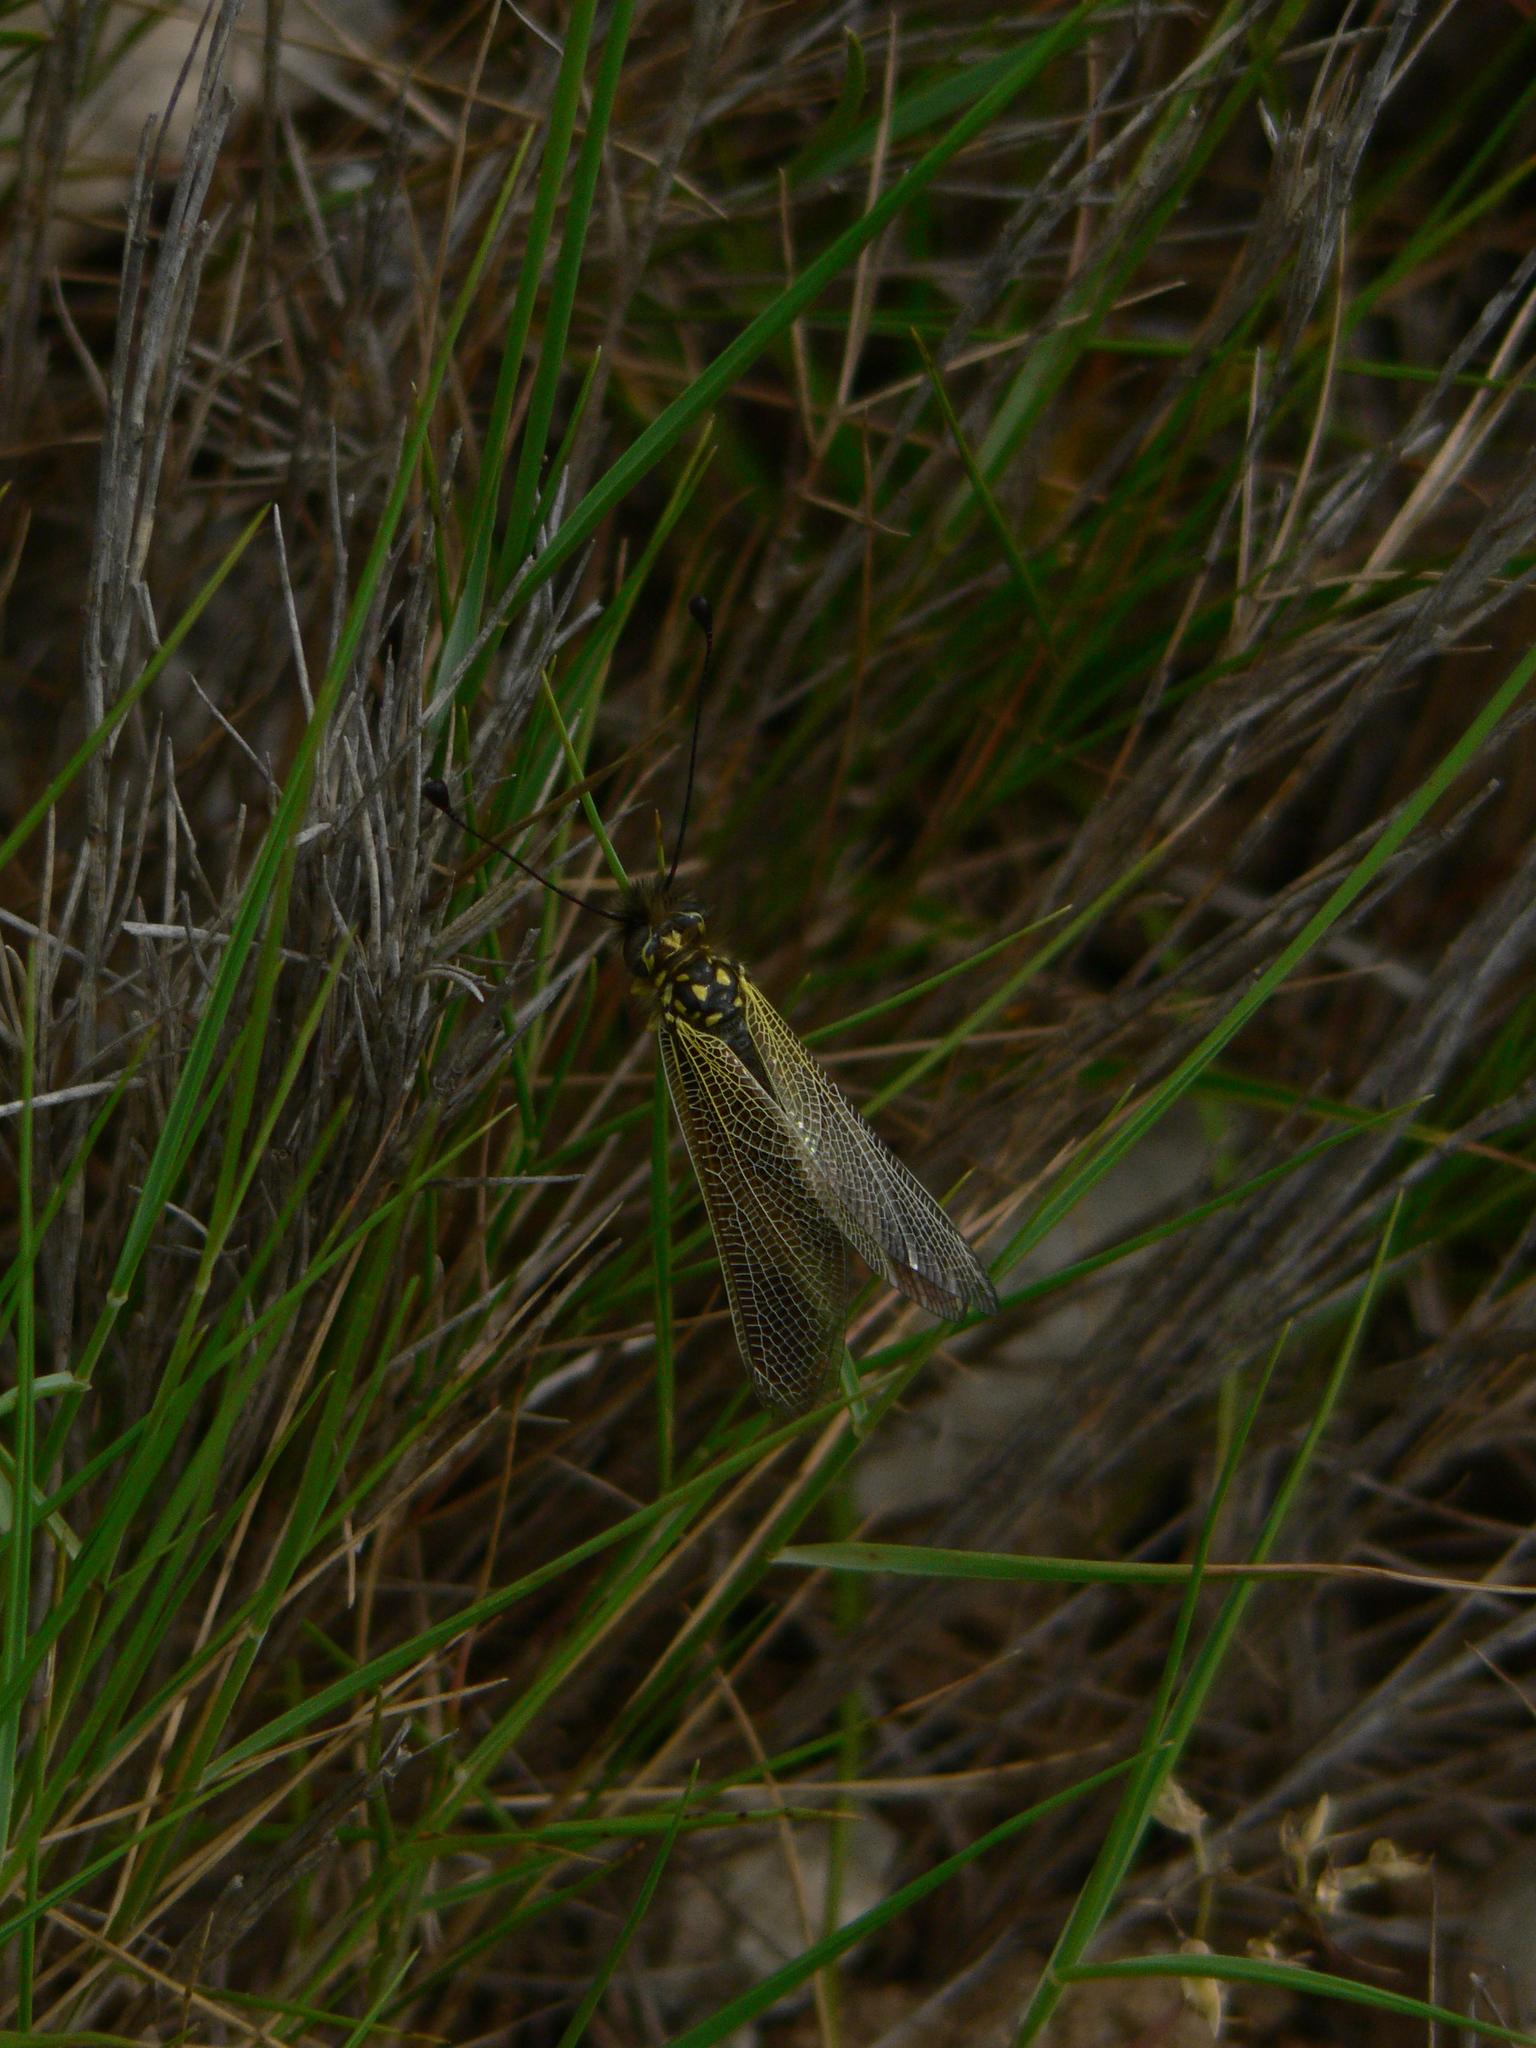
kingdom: Animalia
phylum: Arthropoda
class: Insecta
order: Neuroptera
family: Ascalaphidae
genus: Libelloides
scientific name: Libelloides ictericus
